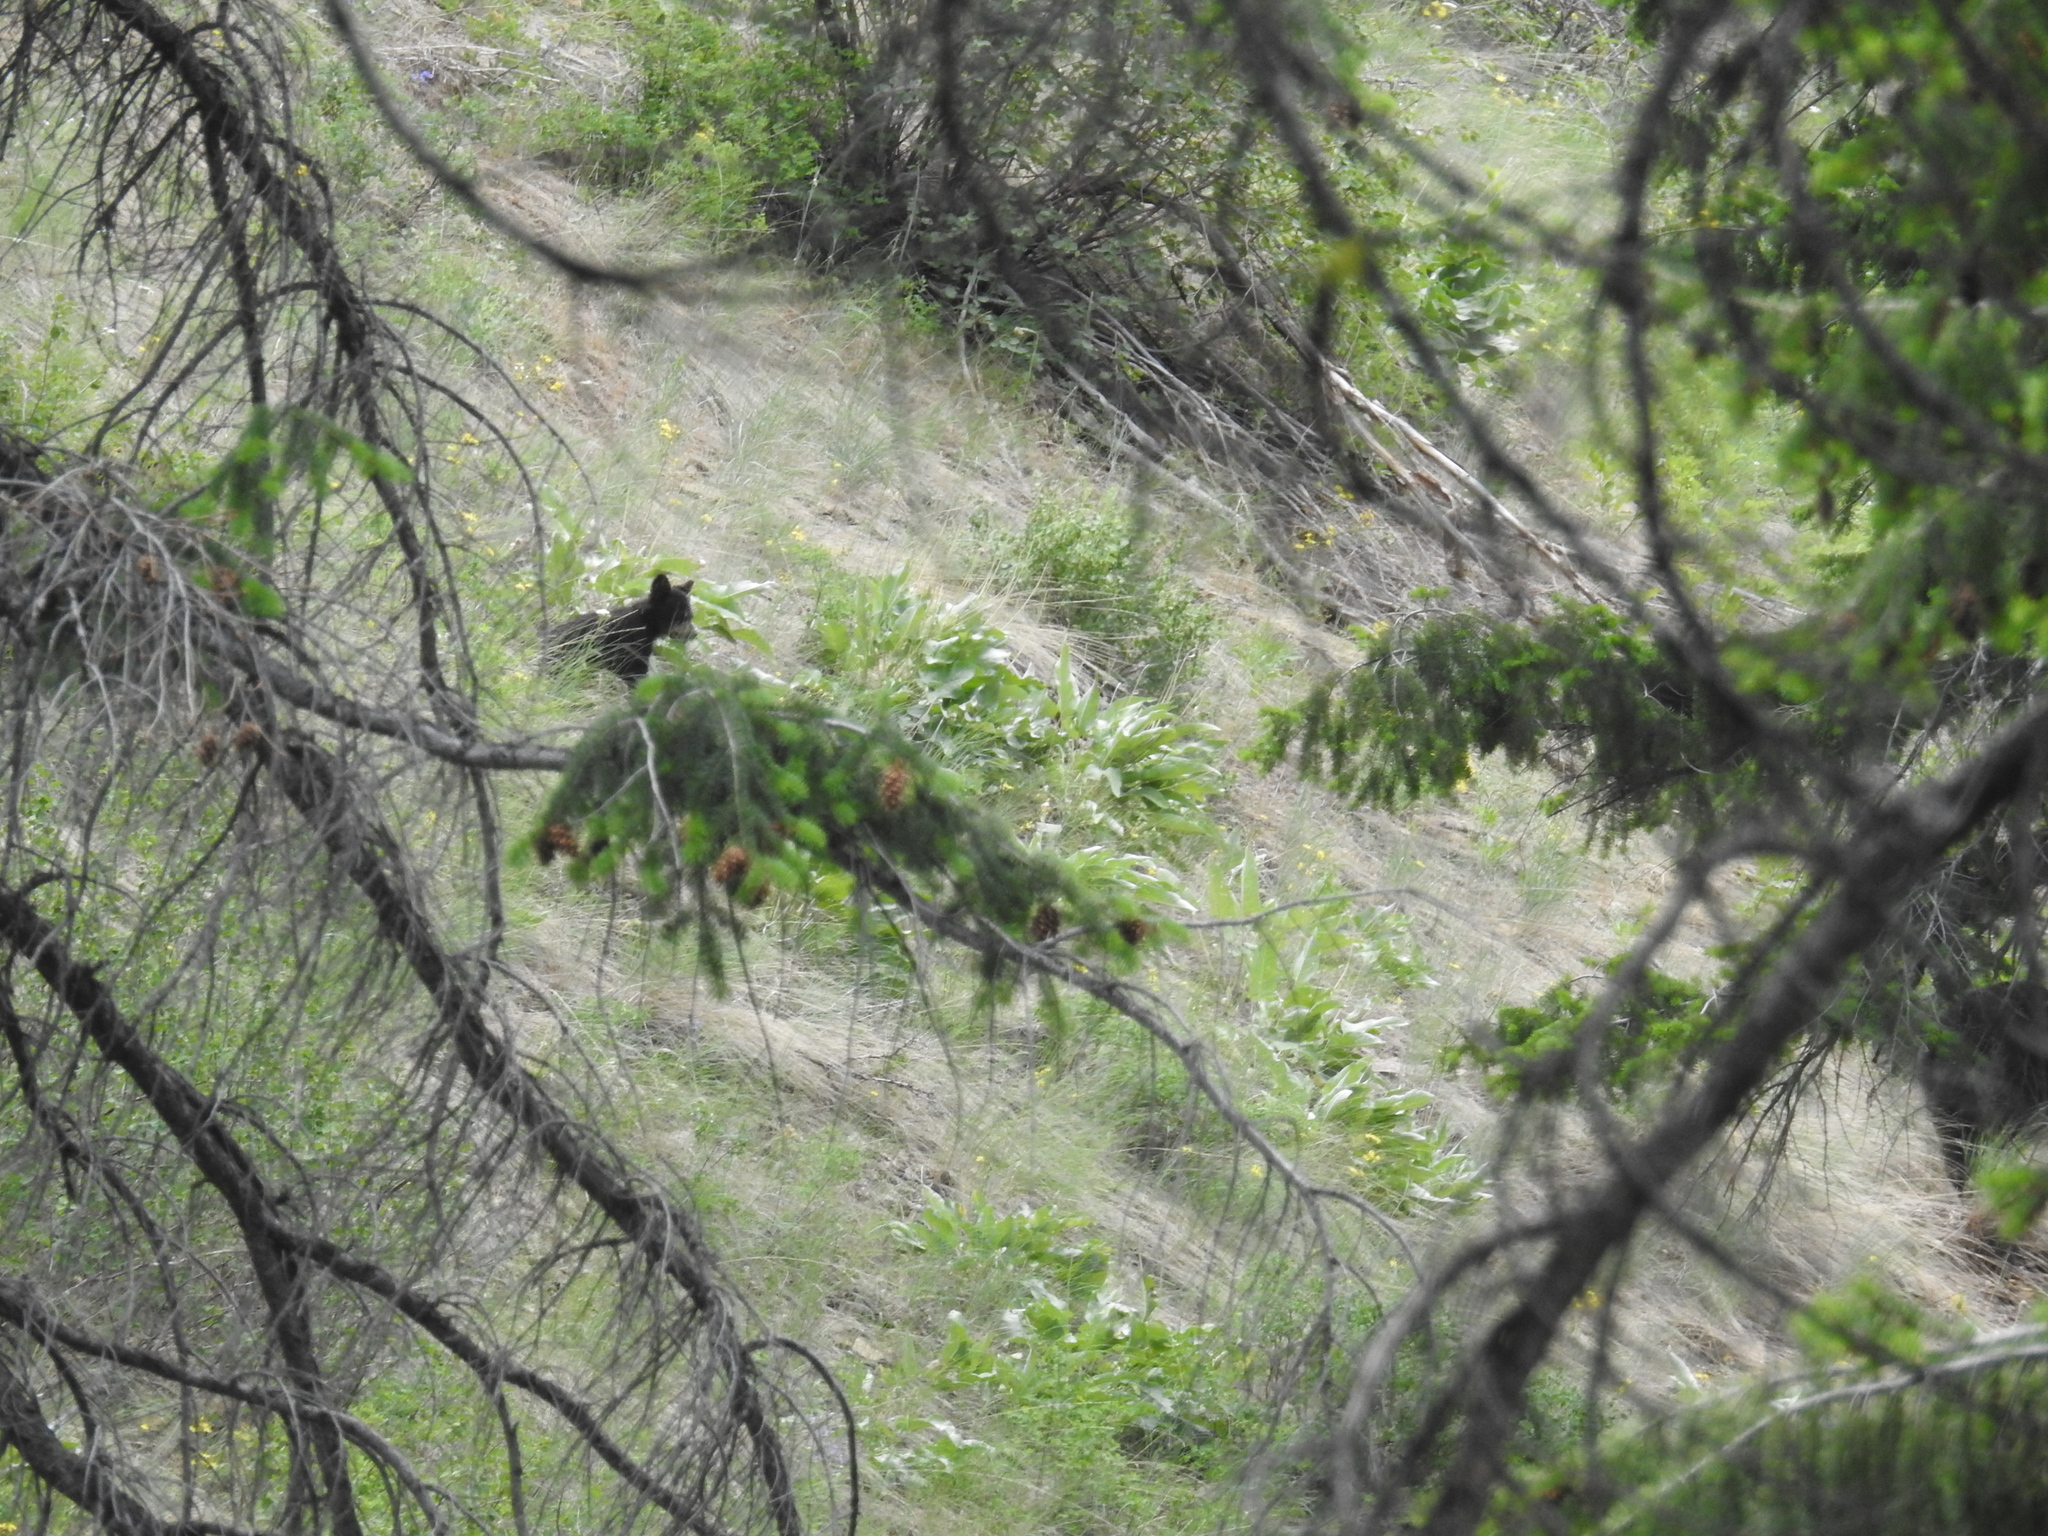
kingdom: Animalia
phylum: Chordata
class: Mammalia
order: Carnivora
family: Ursidae
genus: Ursus
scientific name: Ursus americanus
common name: American black bear
